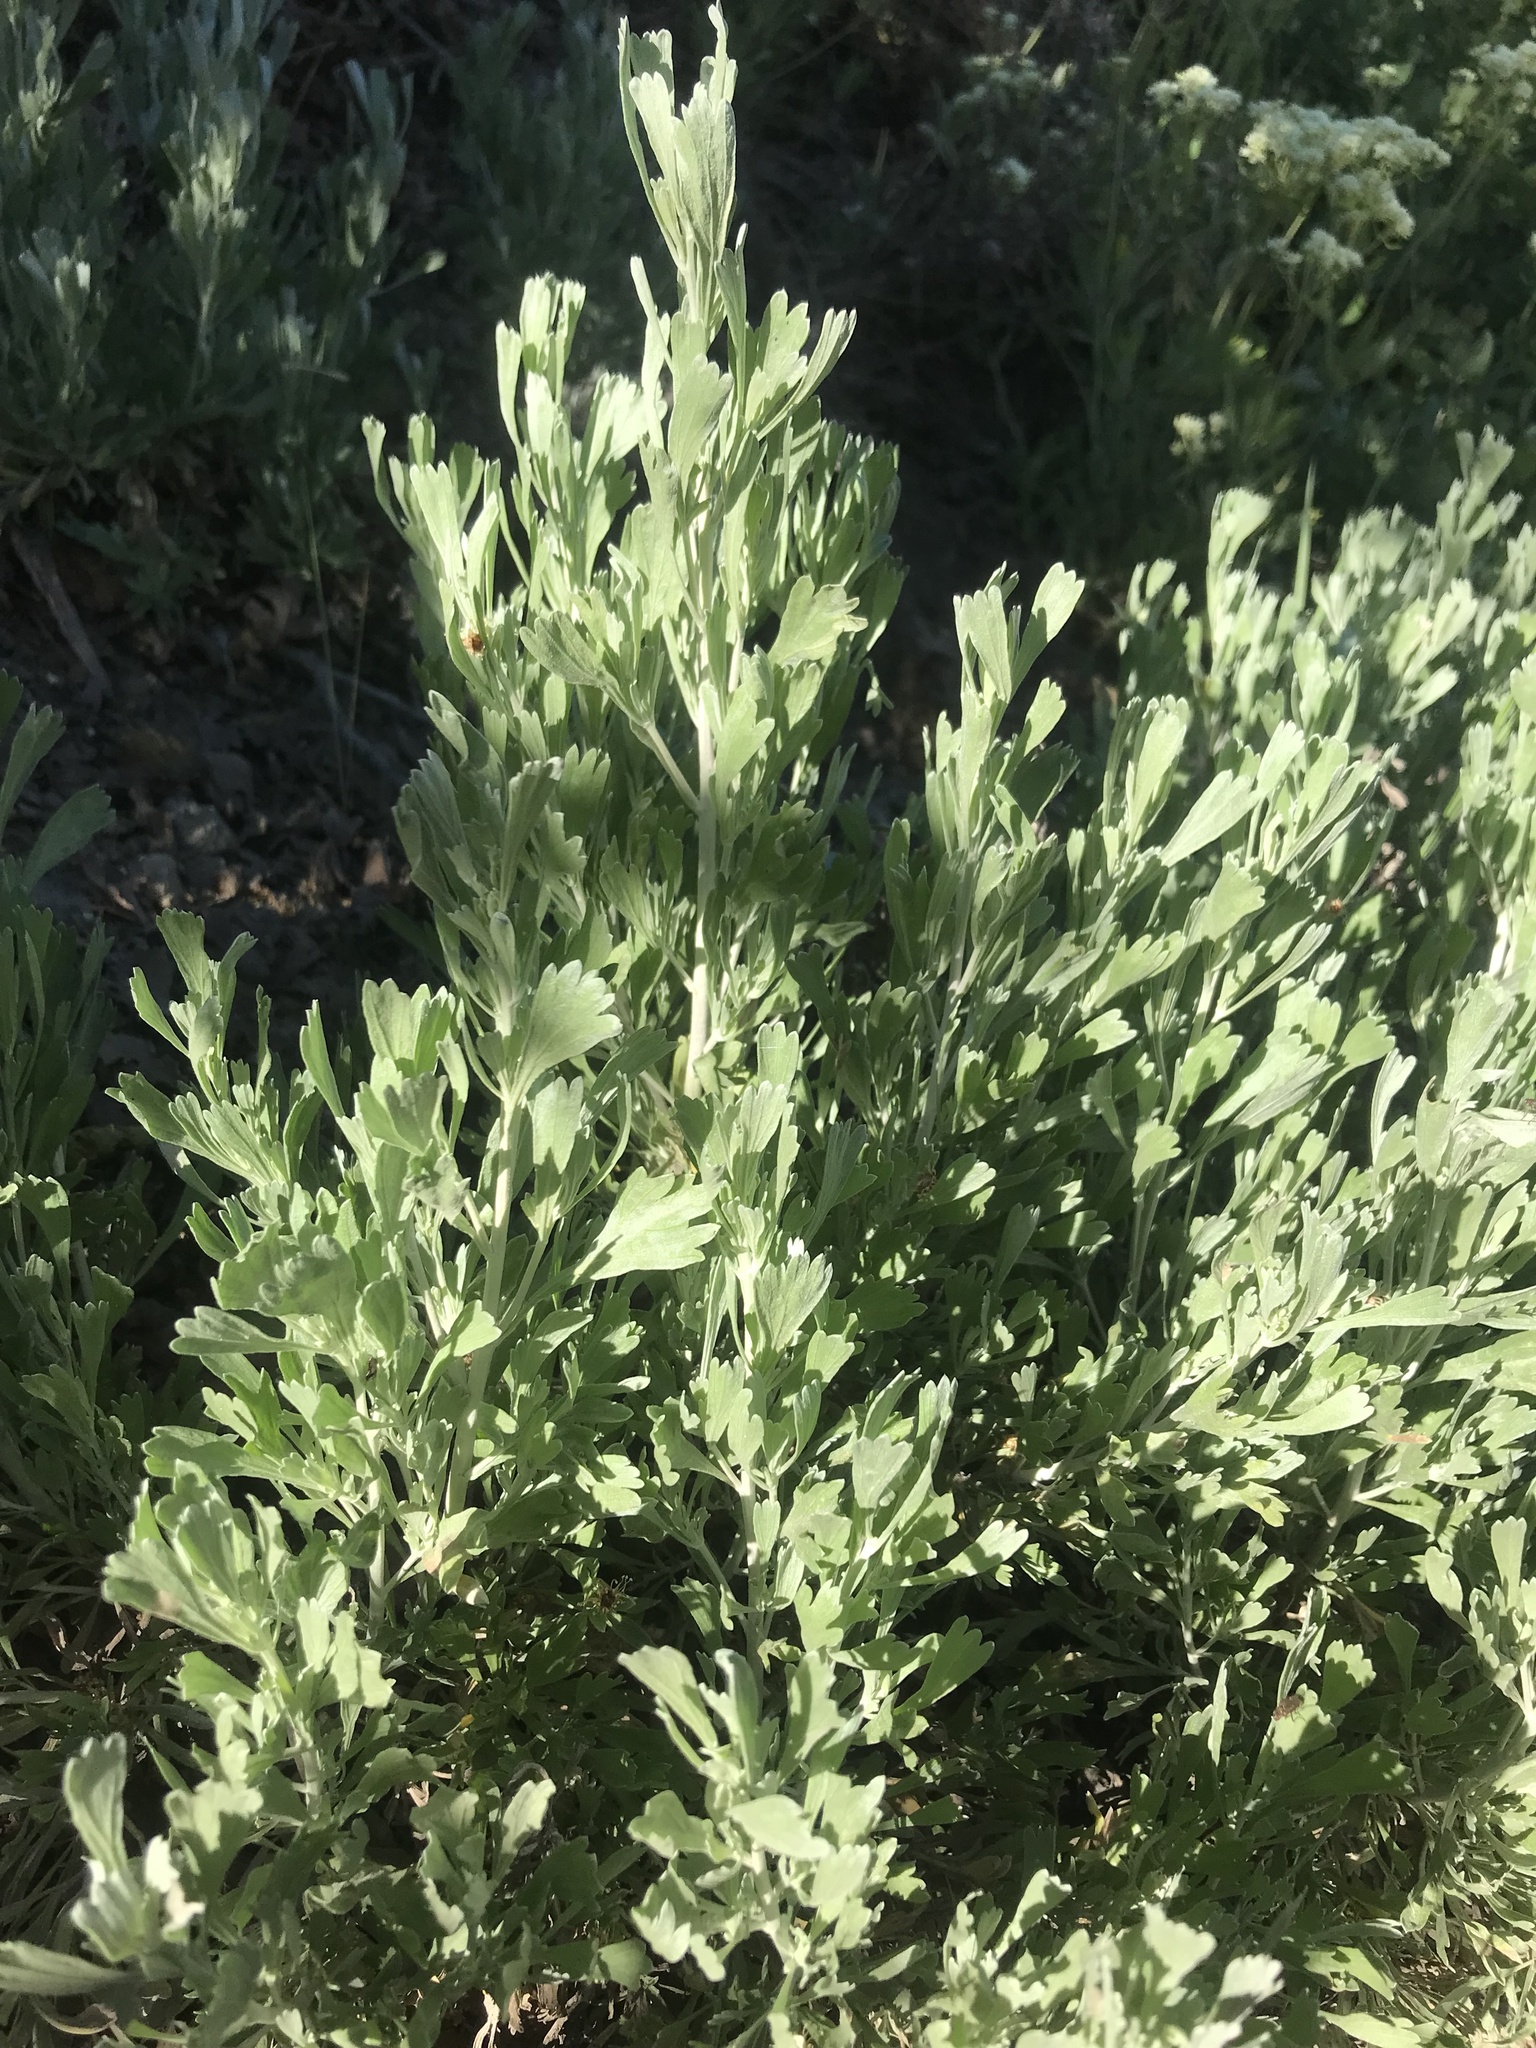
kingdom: Plantae
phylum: Tracheophyta
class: Magnoliopsida
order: Asterales
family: Asteraceae
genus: Artemisia
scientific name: Artemisia tridentata
